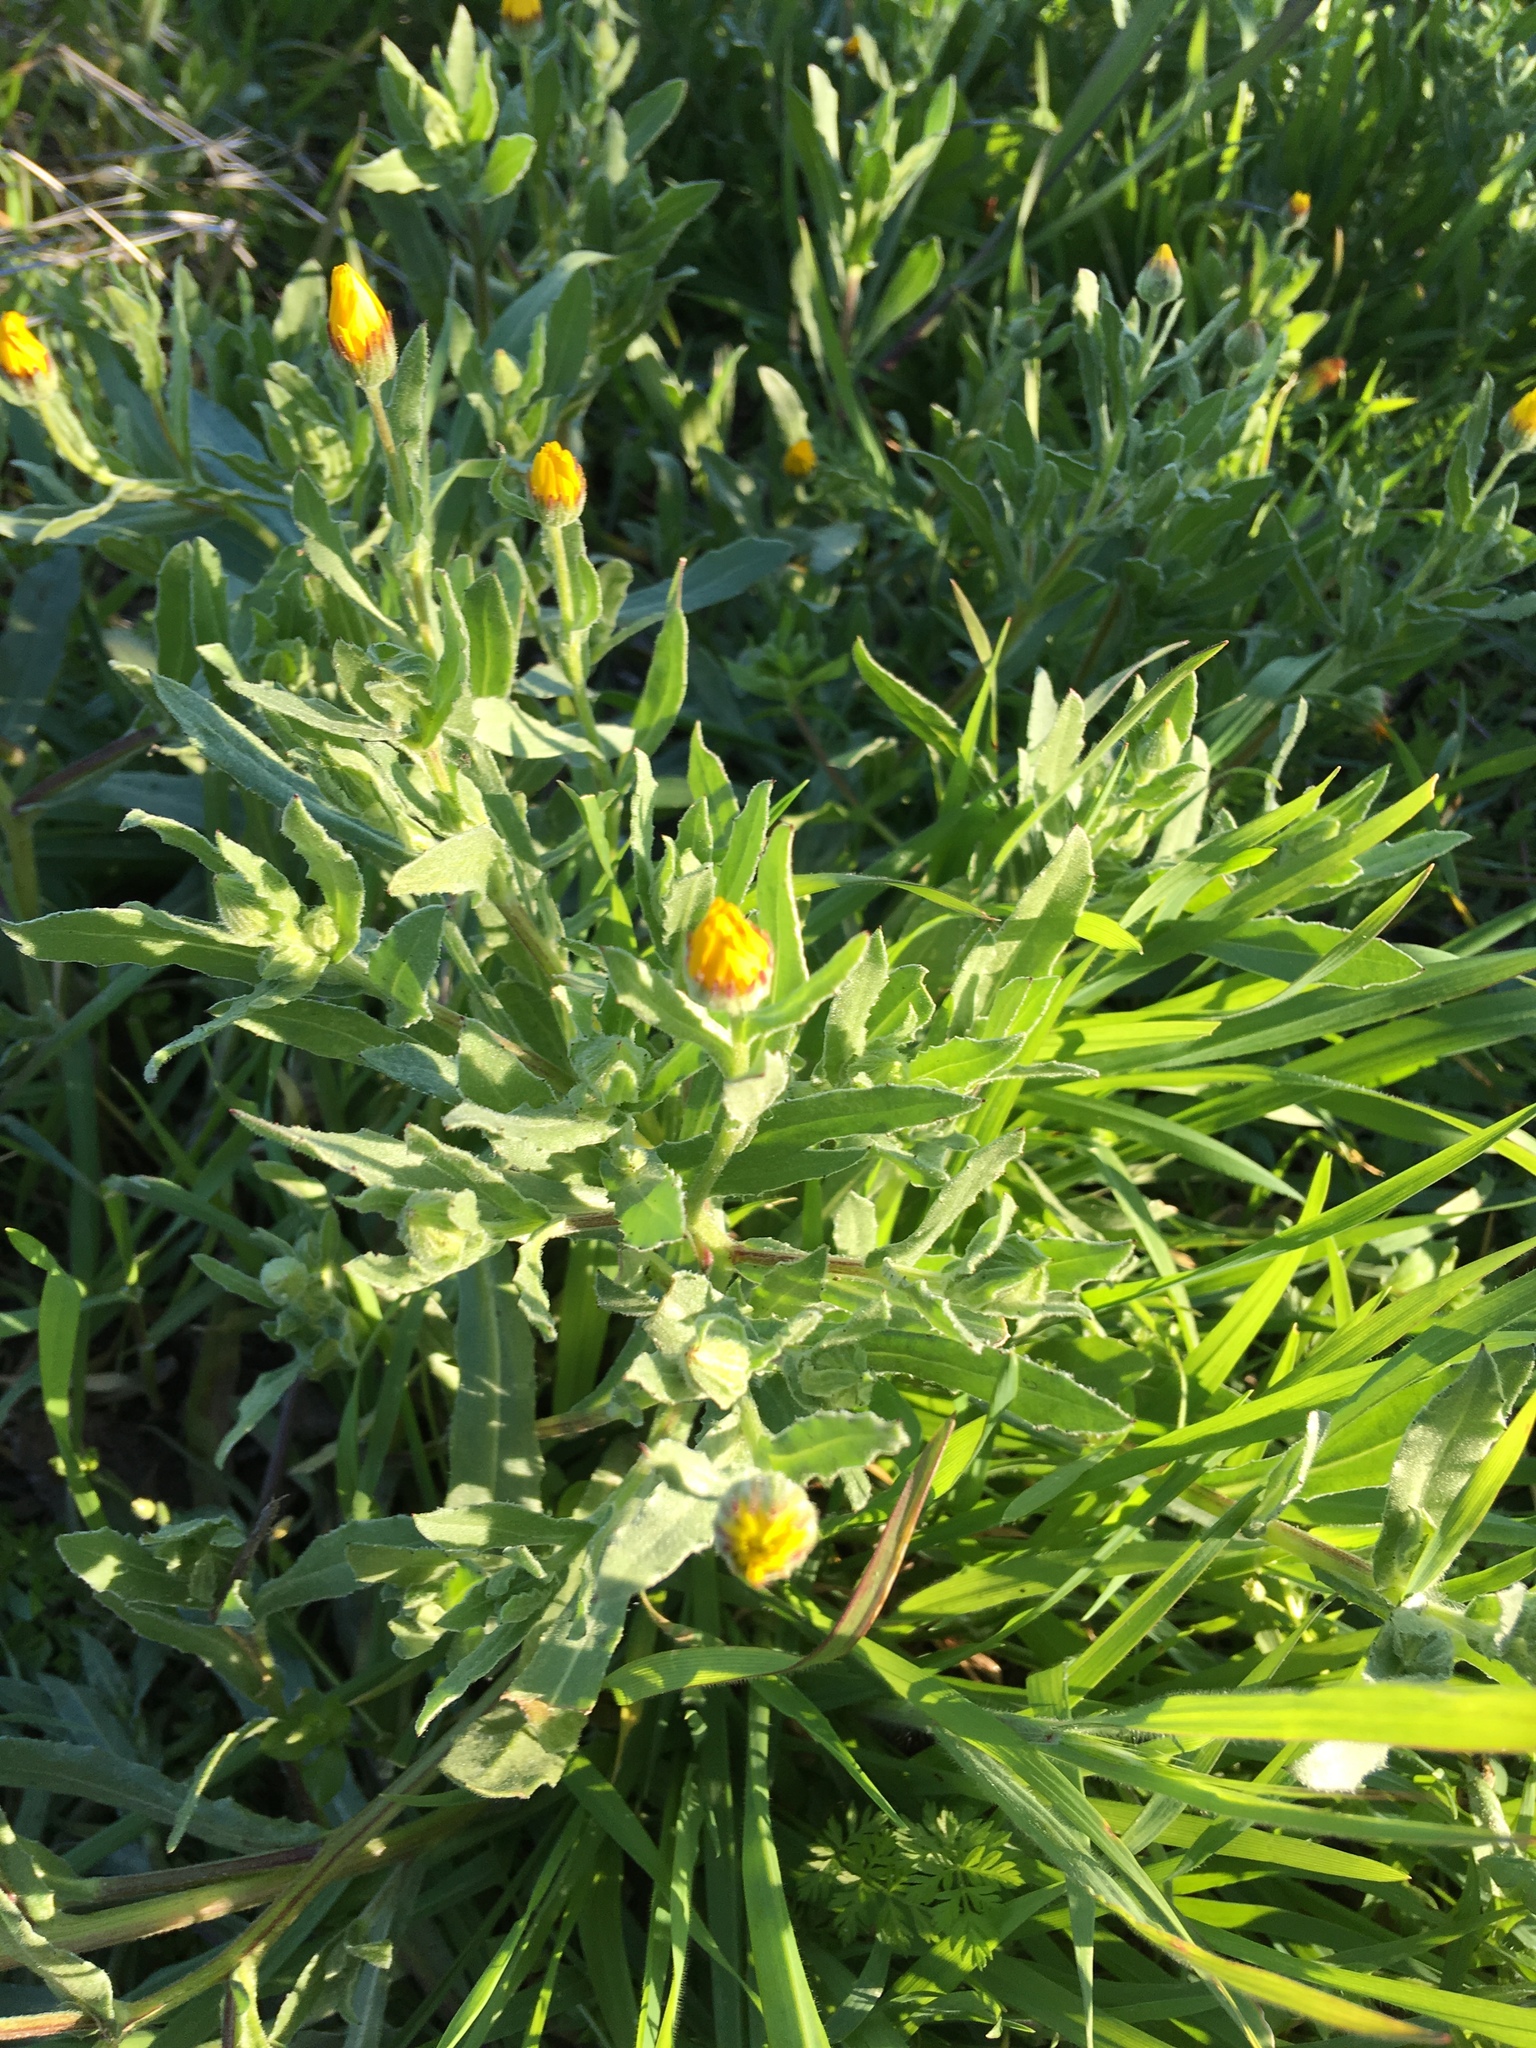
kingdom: Plantae
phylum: Tracheophyta
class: Magnoliopsida
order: Asterales
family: Asteraceae
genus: Calendula
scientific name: Calendula arvensis
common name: Field marigold
